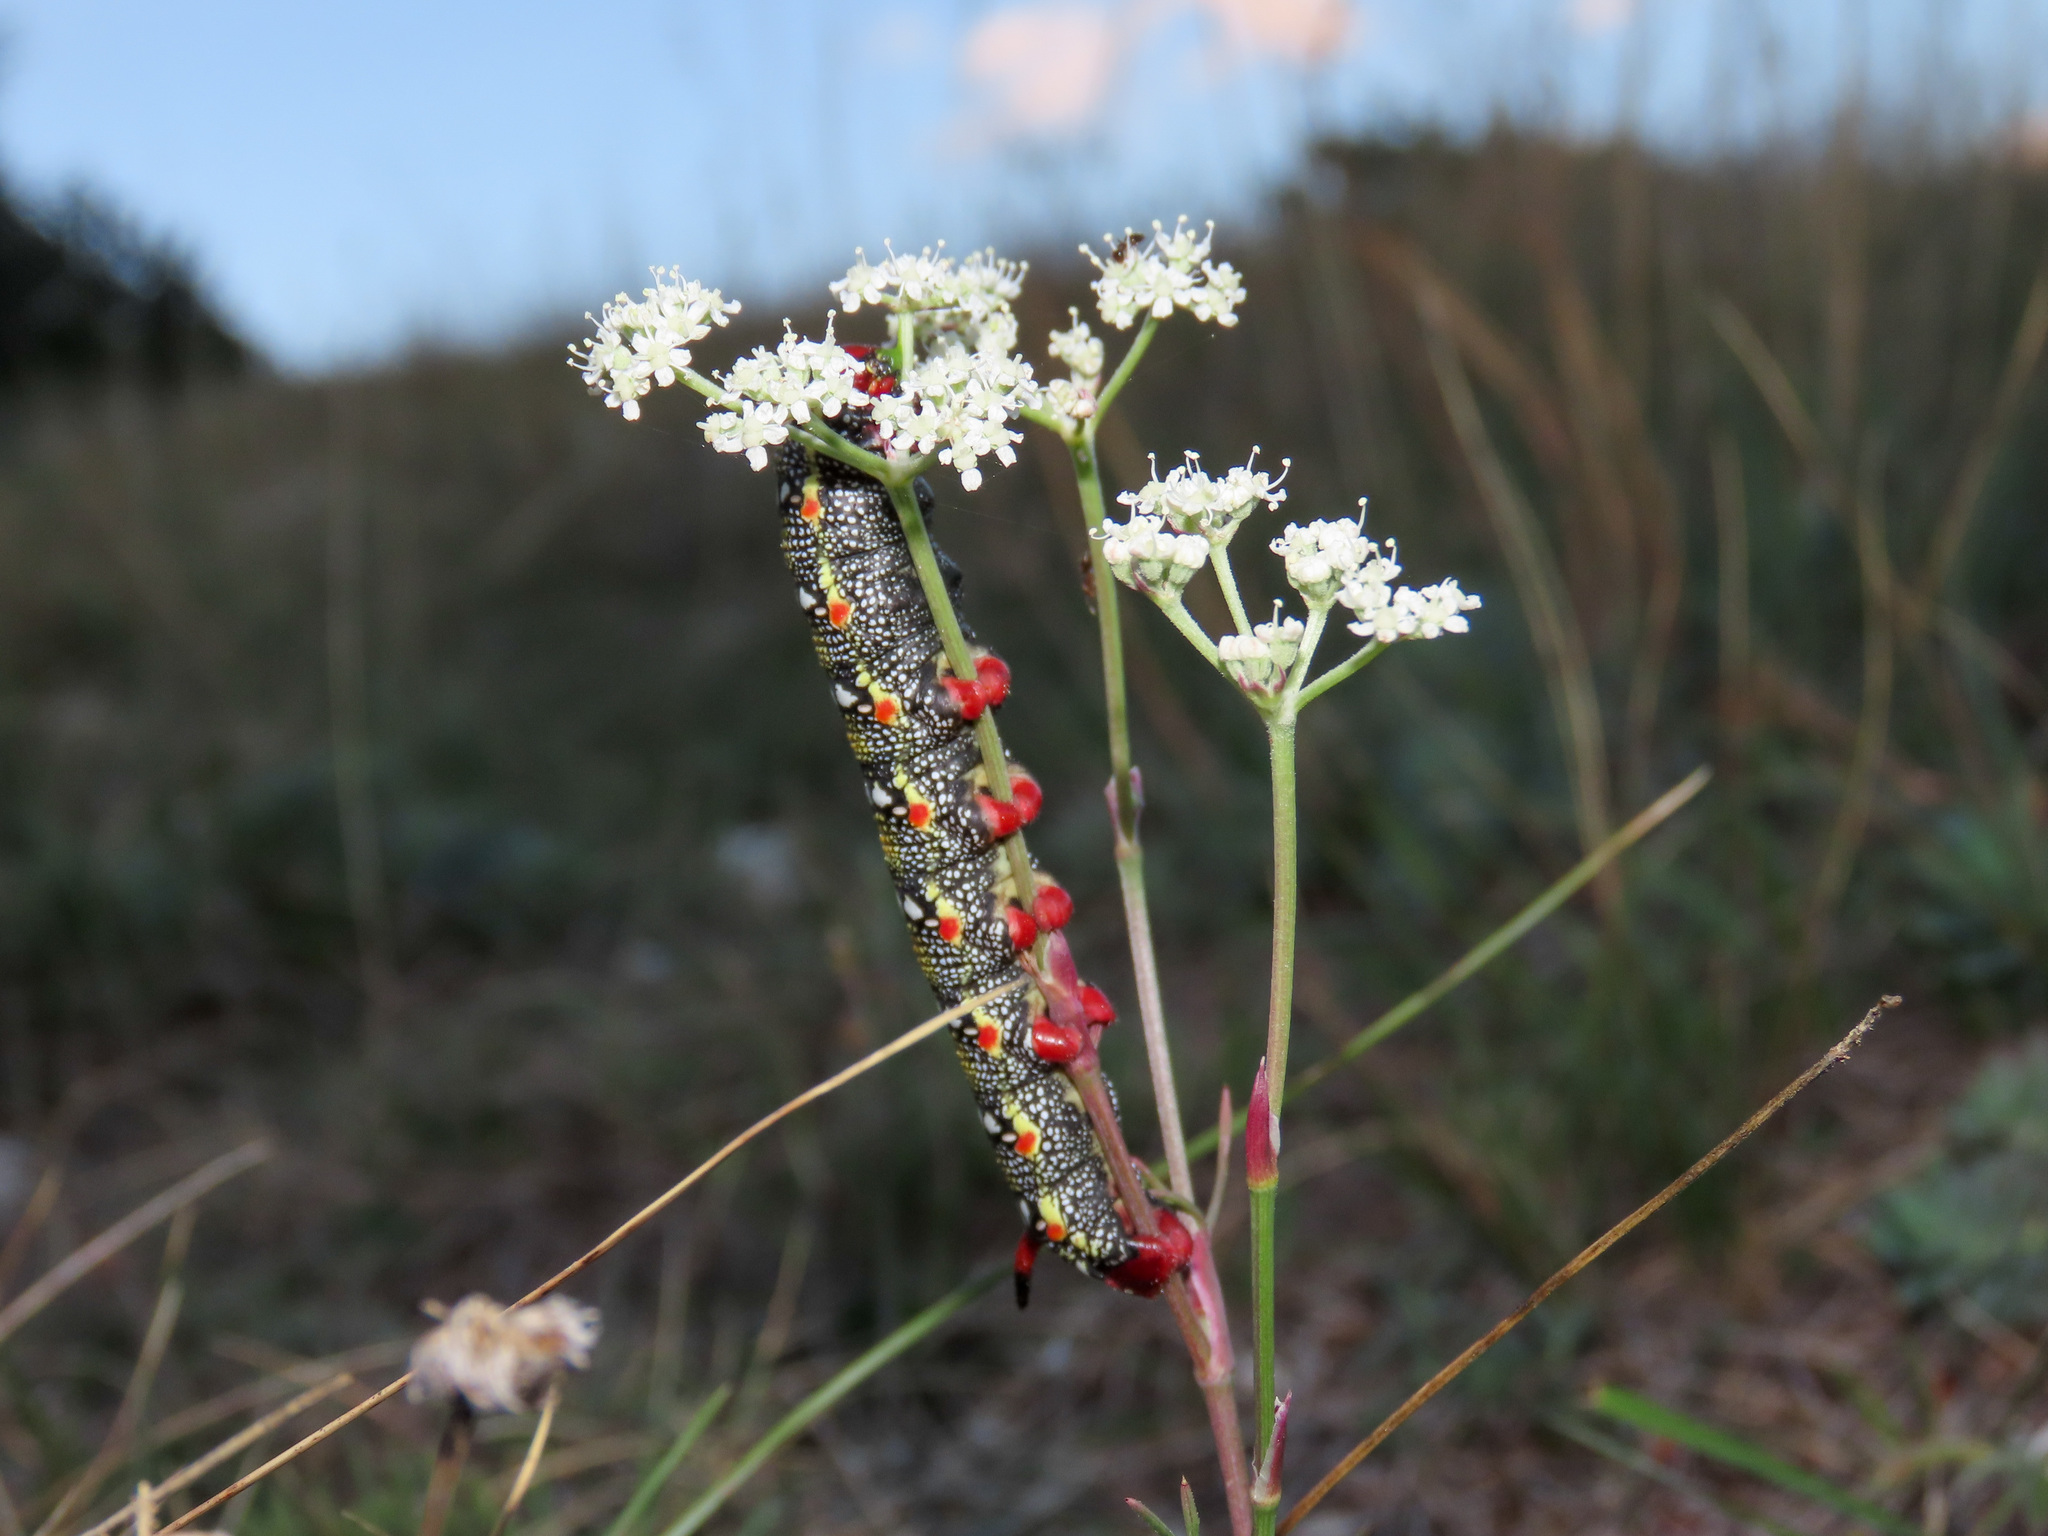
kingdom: Animalia
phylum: Arthropoda
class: Insecta
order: Lepidoptera
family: Sphingidae
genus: Hyles
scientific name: Hyles euphorbiae
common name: Spurge hawk-moth
